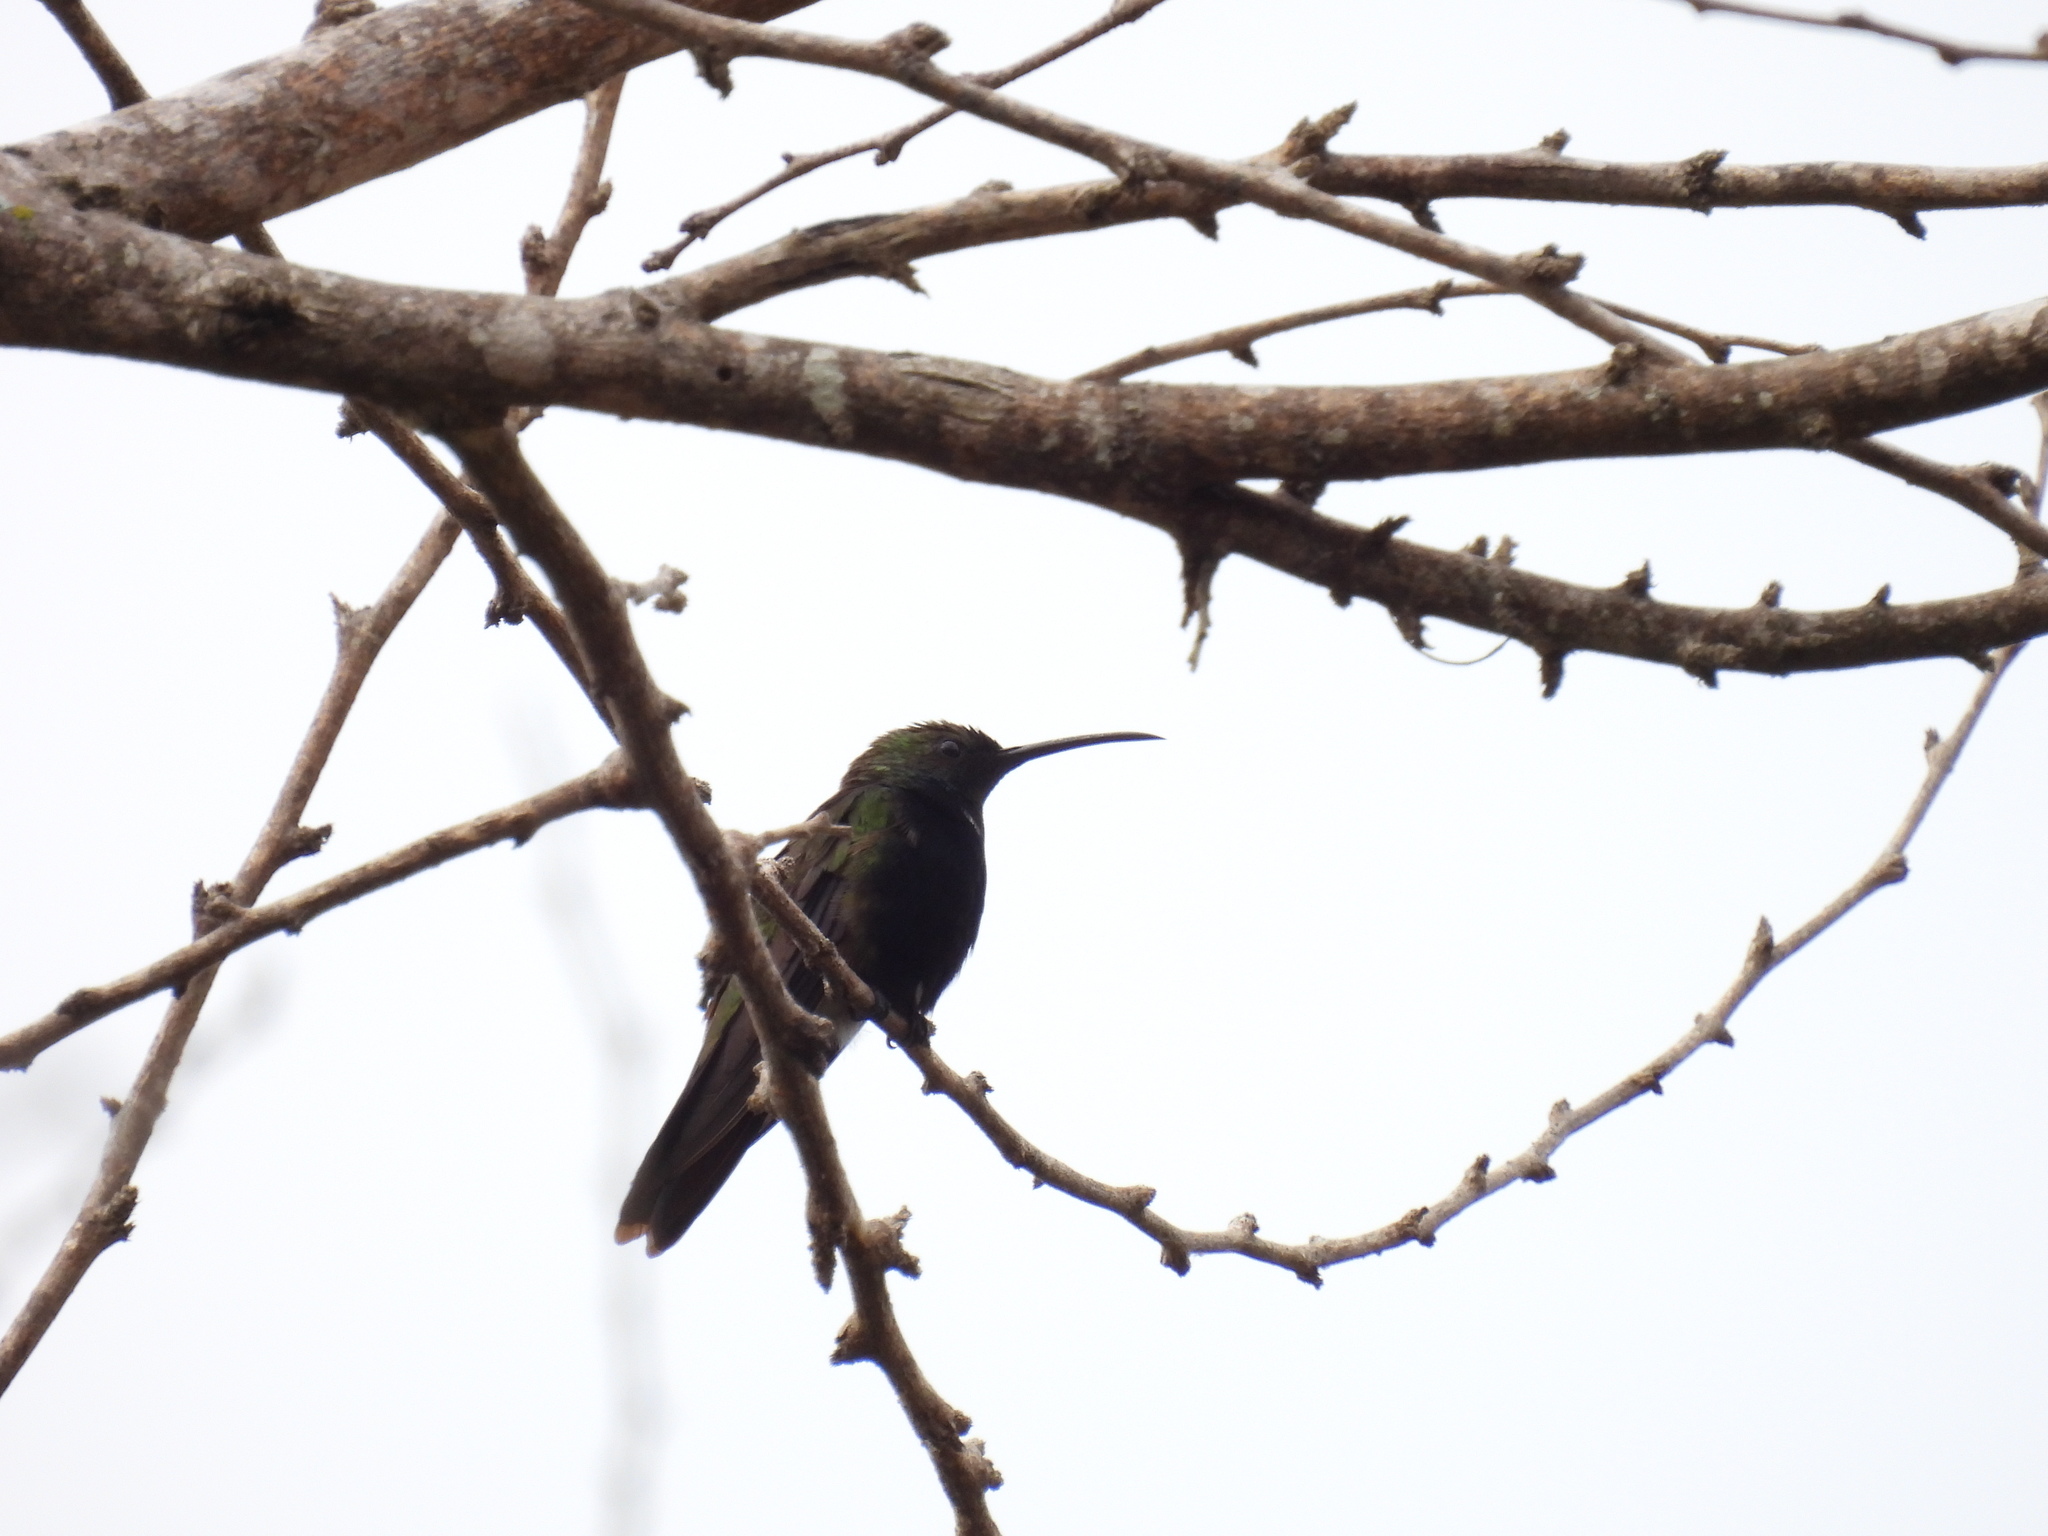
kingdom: Animalia
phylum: Chordata
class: Aves
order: Apodiformes
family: Trochilidae
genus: Anthracothorax
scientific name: Anthracothorax dominicus
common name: Antillean mango
